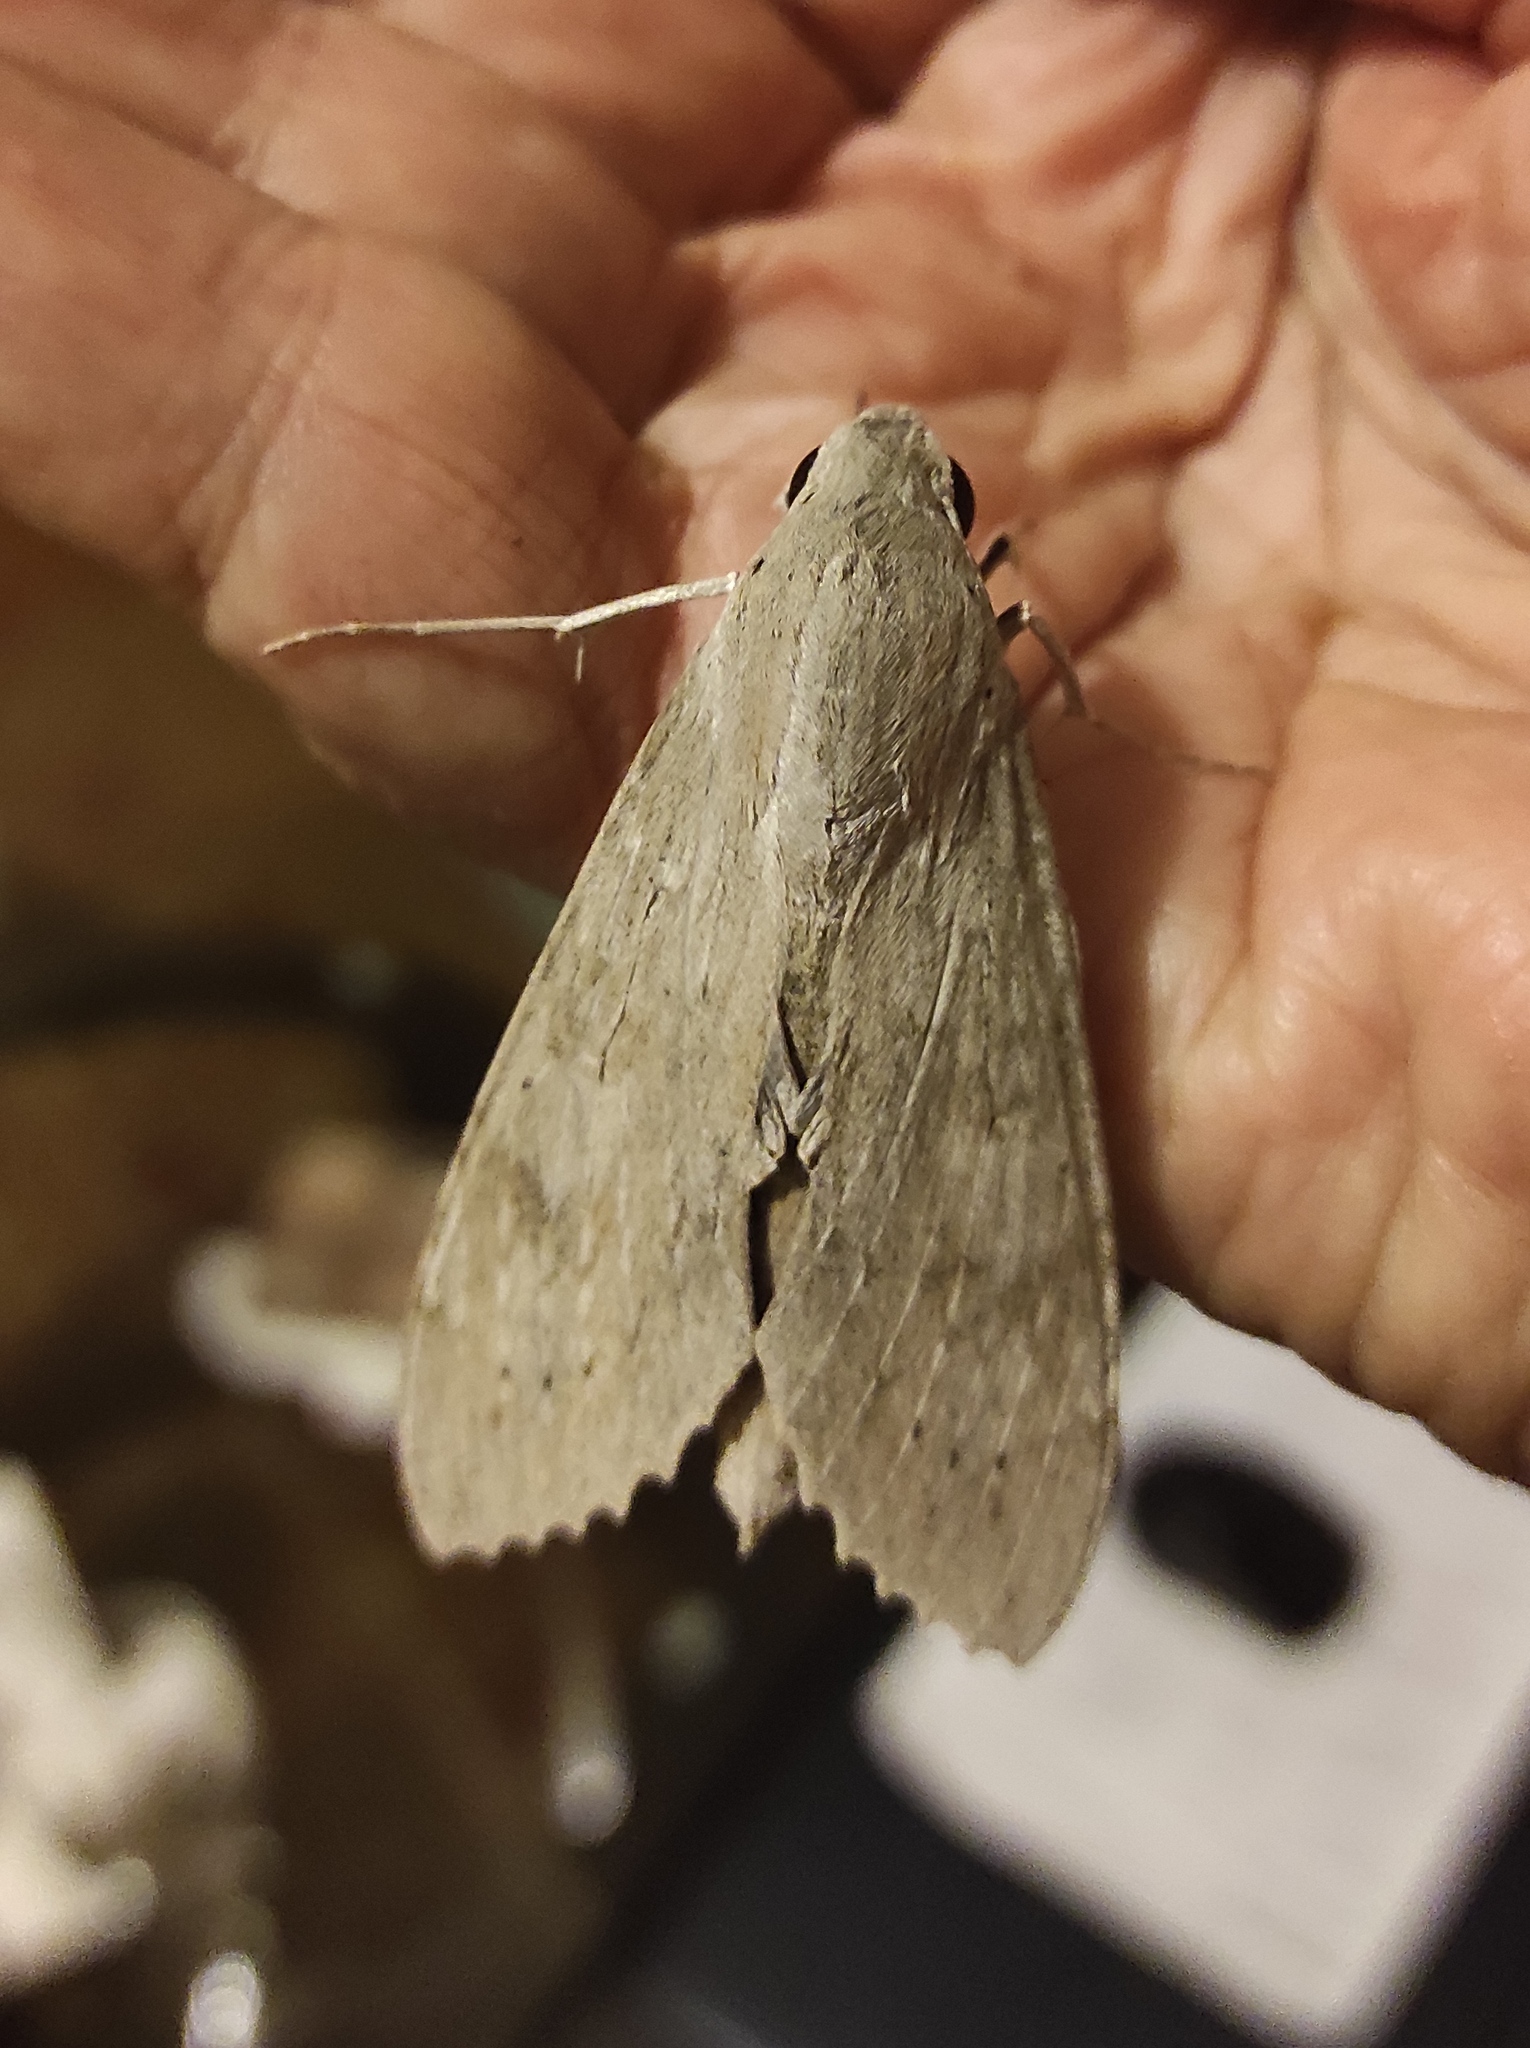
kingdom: Animalia
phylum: Arthropoda
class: Insecta
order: Lepidoptera
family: Sphingidae
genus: Erinnyis
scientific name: Erinnyis ello
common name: Ello sphinx
